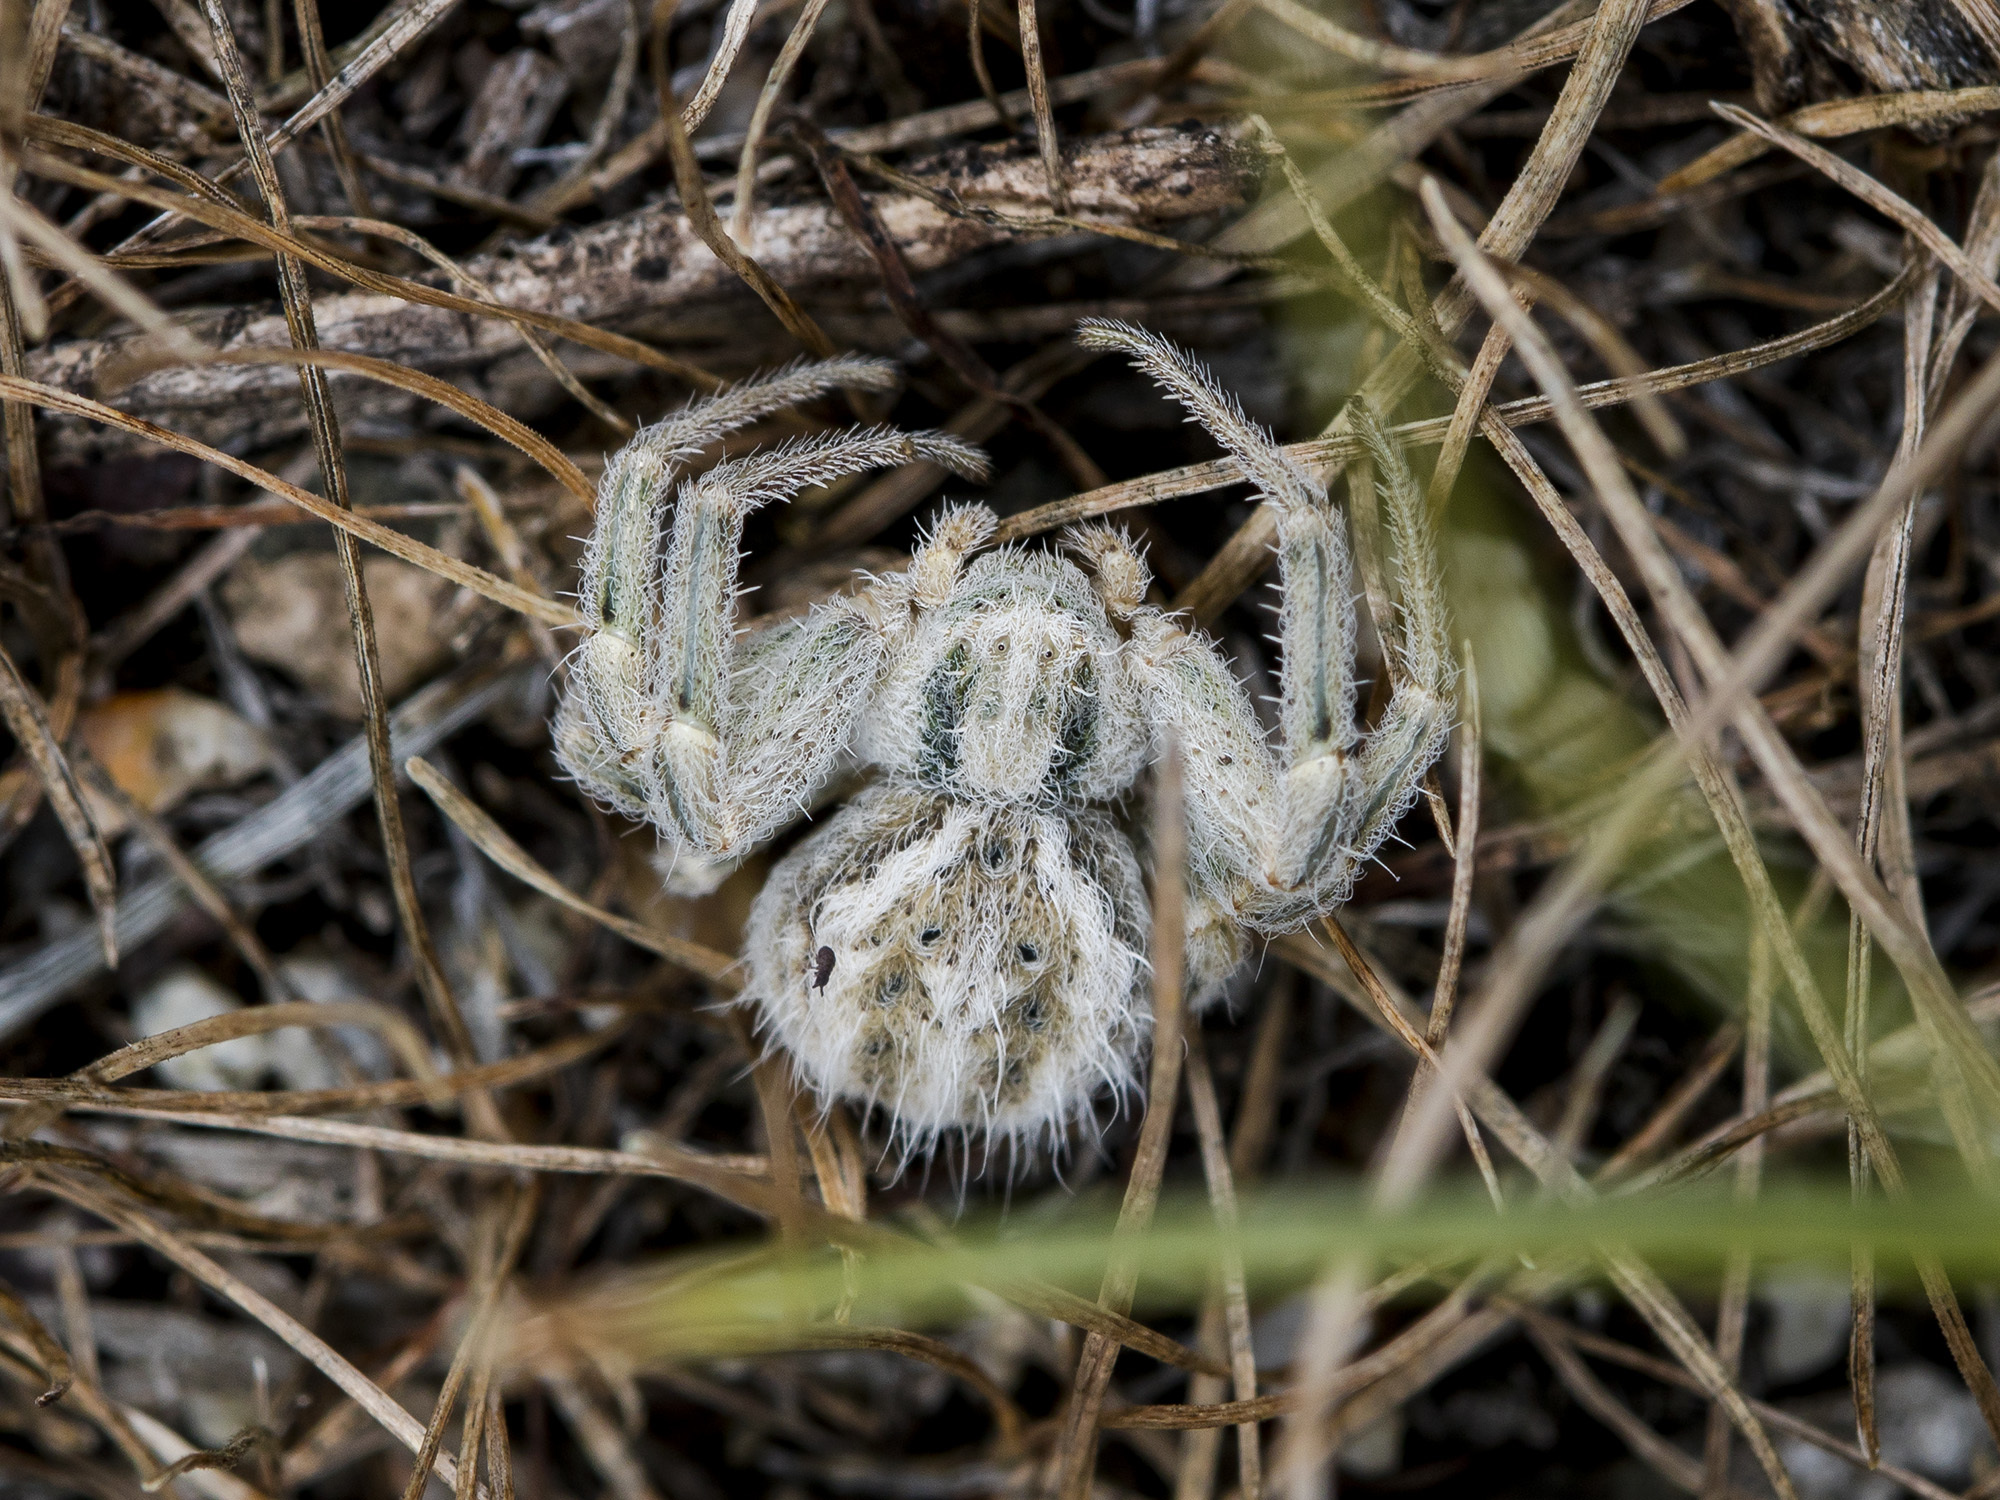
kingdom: Animalia
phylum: Arthropoda
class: Arachnida
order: Araneae
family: Thomisidae
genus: Heriaeus
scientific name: Heriaeus horridus
